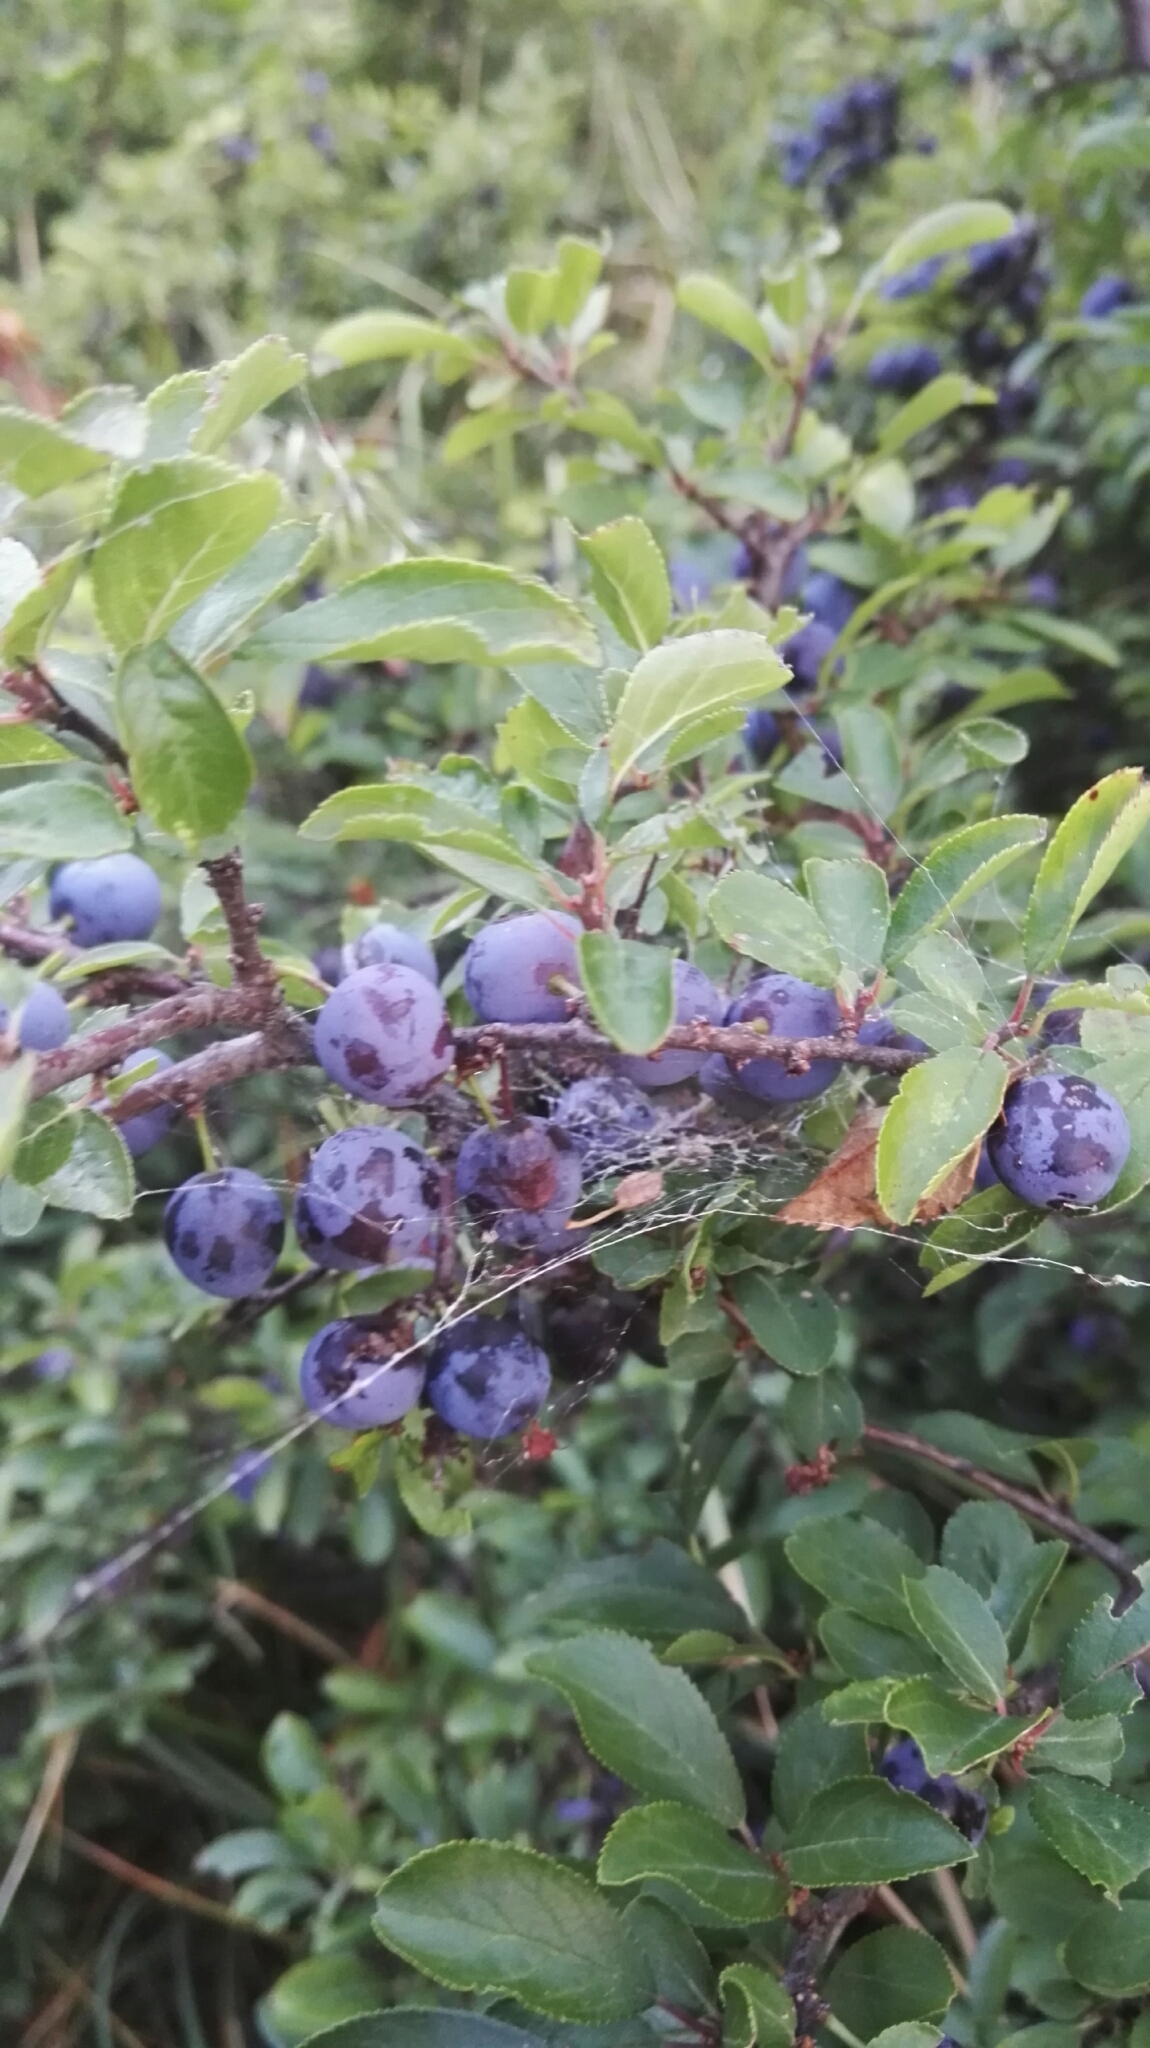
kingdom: Plantae
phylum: Tracheophyta
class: Magnoliopsida
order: Rosales
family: Rosaceae
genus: Prunus
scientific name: Prunus spinosa
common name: Blackthorn
